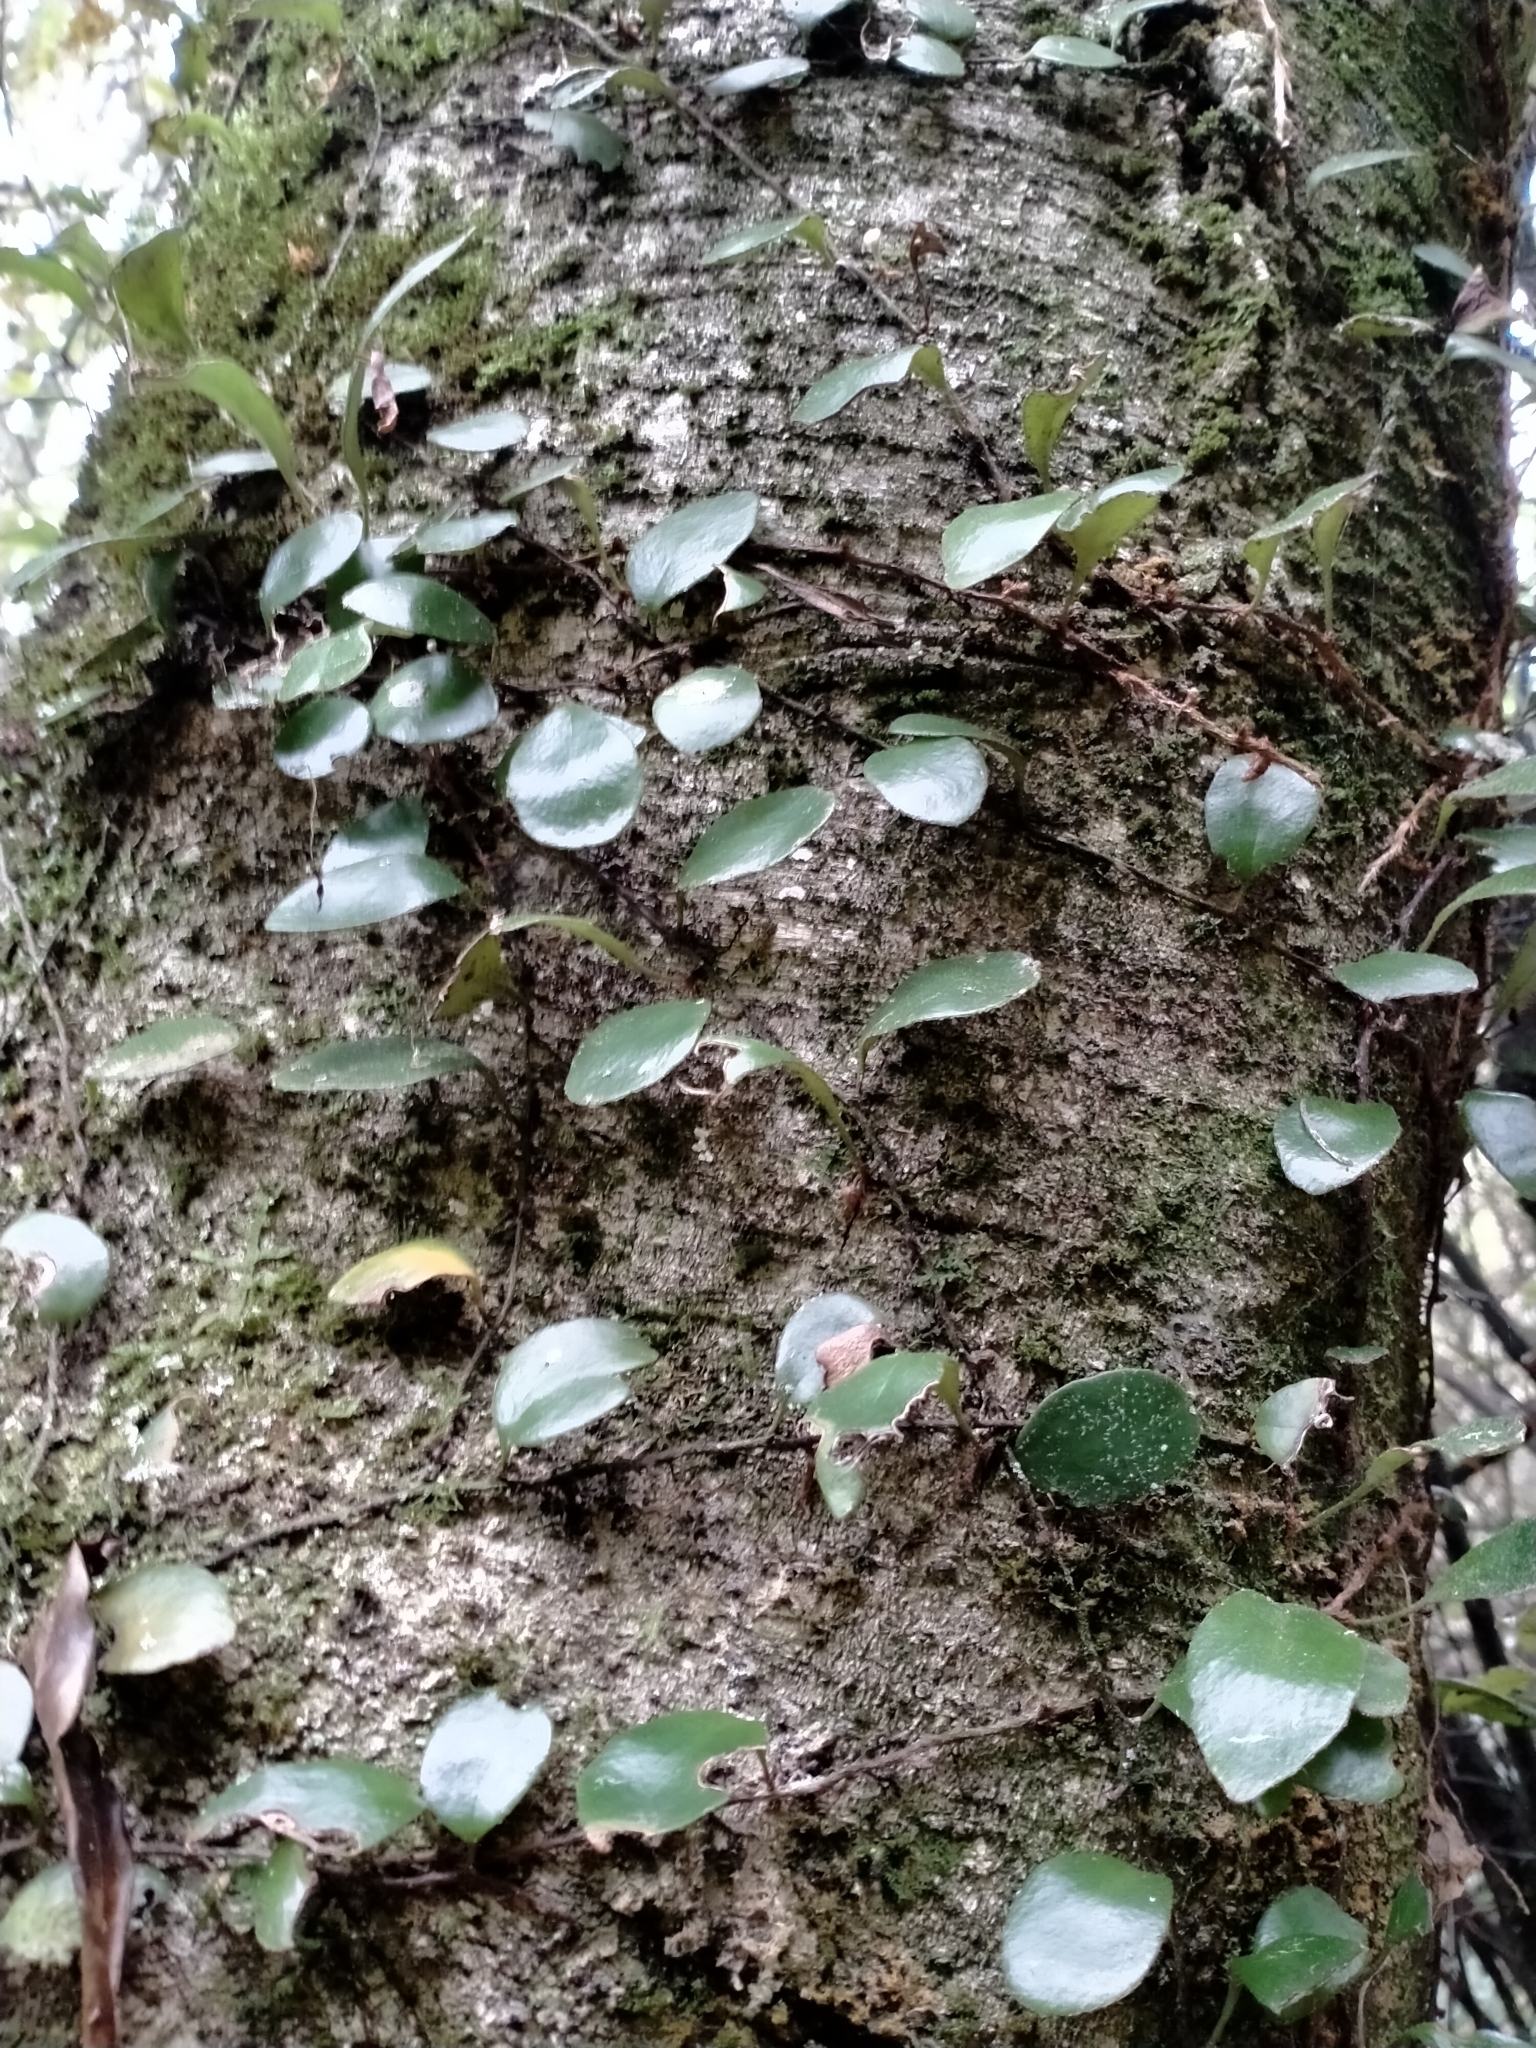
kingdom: Plantae
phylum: Tracheophyta
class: Polypodiopsida
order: Polypodiales
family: Polypodiaceae
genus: Pyrrosia
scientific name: Pyrrosia eleagnifolia
